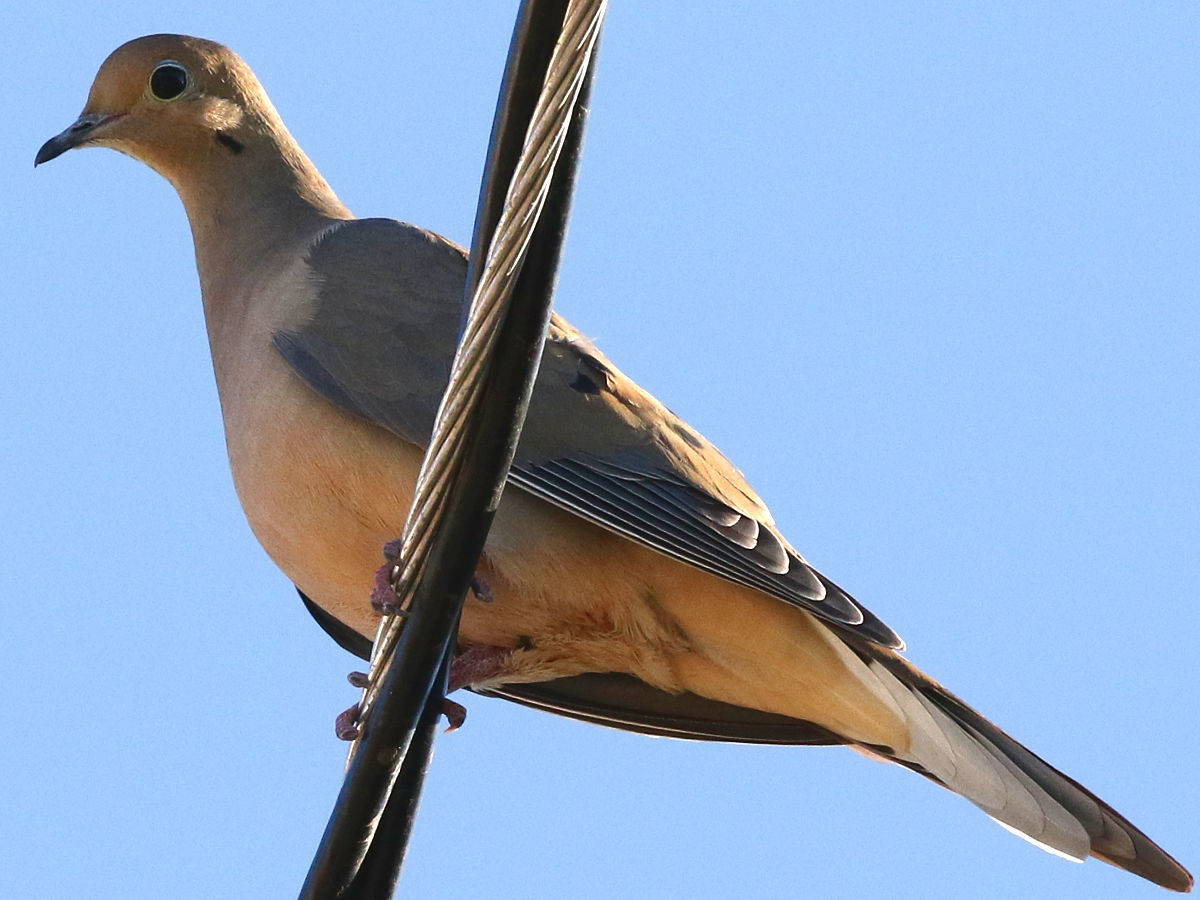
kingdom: Animalia
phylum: Chordata
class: Aves
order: Columbiformes
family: Columbidae
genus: Zenaida
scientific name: Zenaida macroura
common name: Mourning dove
